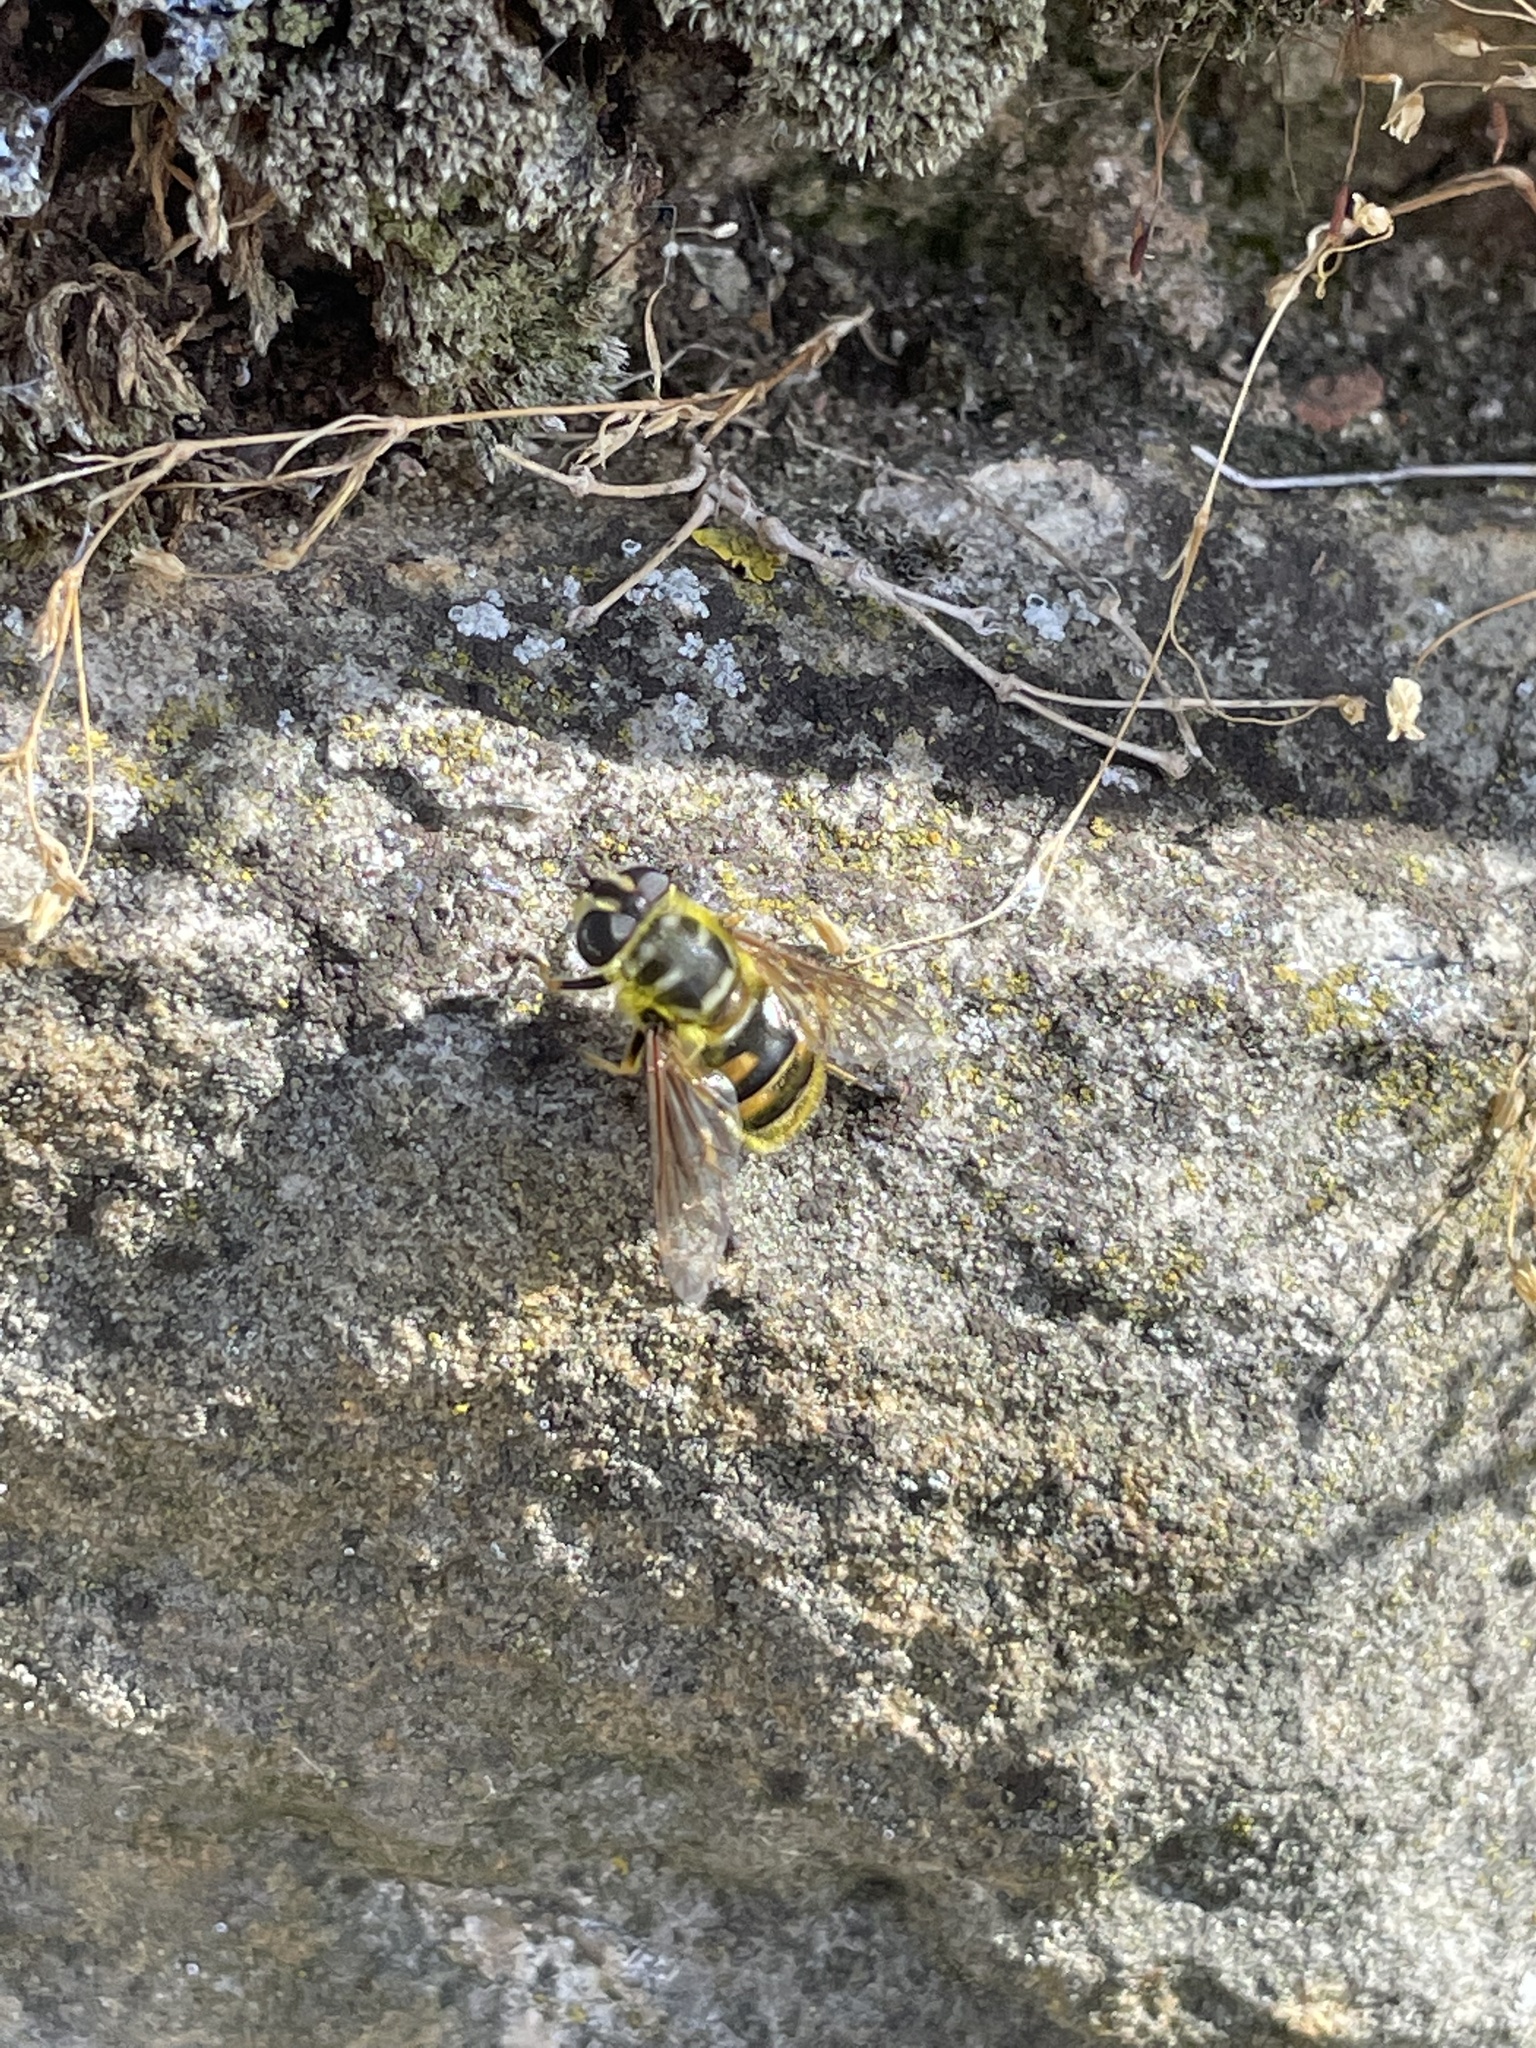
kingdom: Animalia
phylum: Arthropoda
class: Insecta
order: Diptera
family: Syrphidae
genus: Myathropa
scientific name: Myathropa florea
